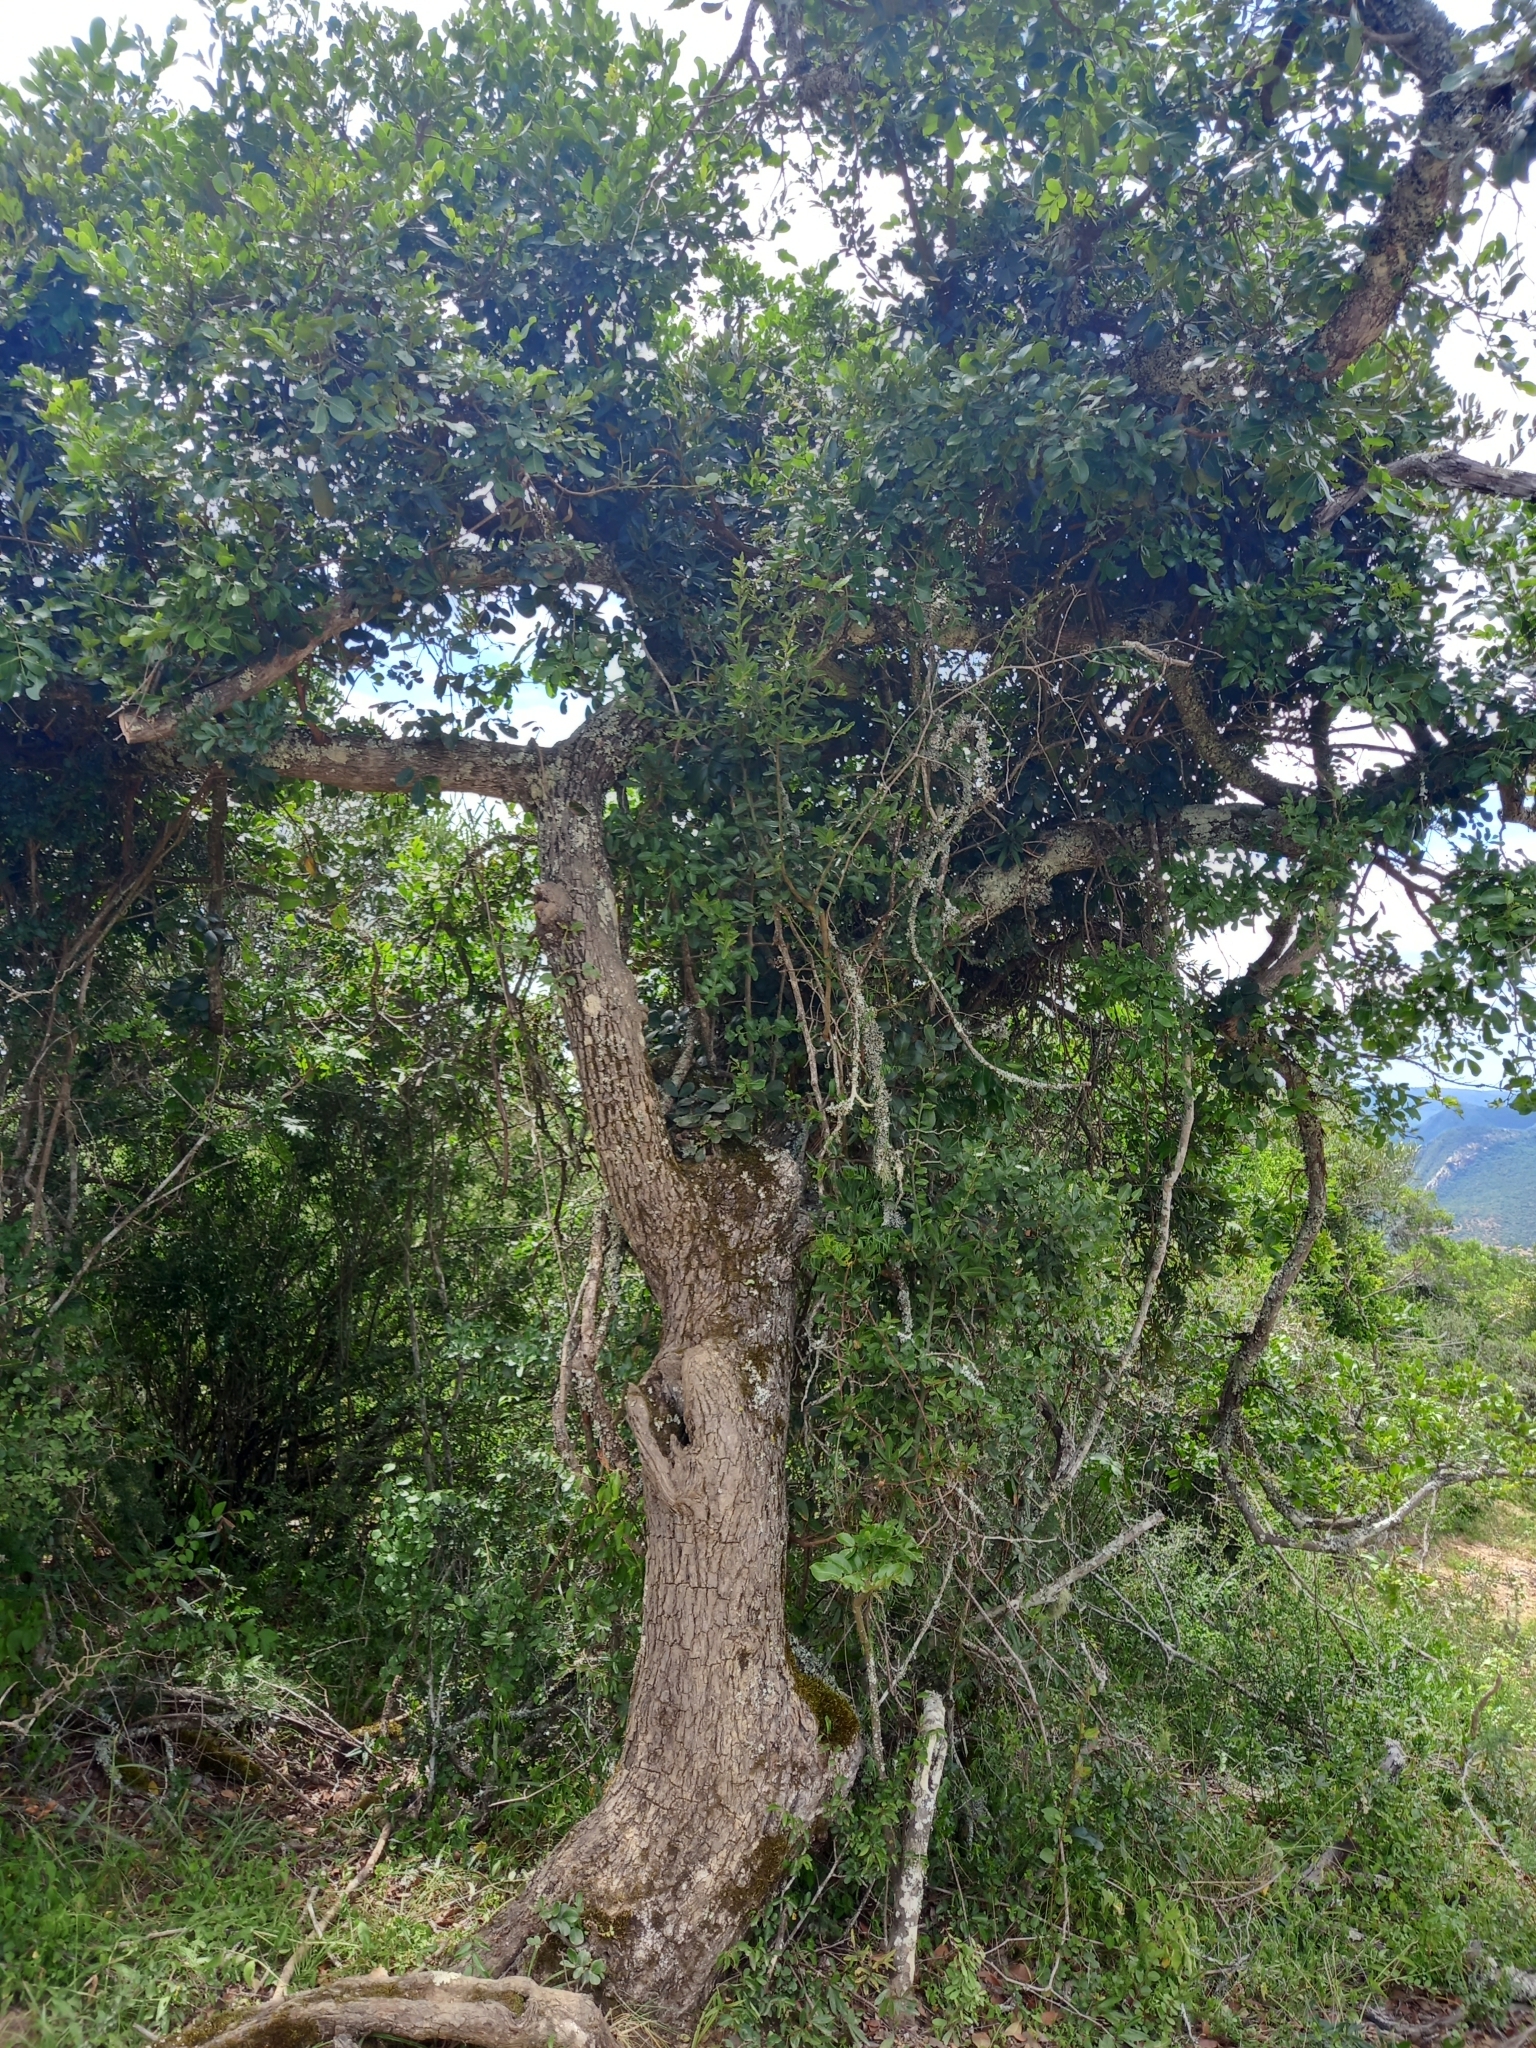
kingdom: Plantae
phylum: Tracheophyta
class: Magnoliopsida
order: Fabales
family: Fabaceae
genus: Schotia
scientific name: Schotia latifolia
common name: Bush boer-bean
